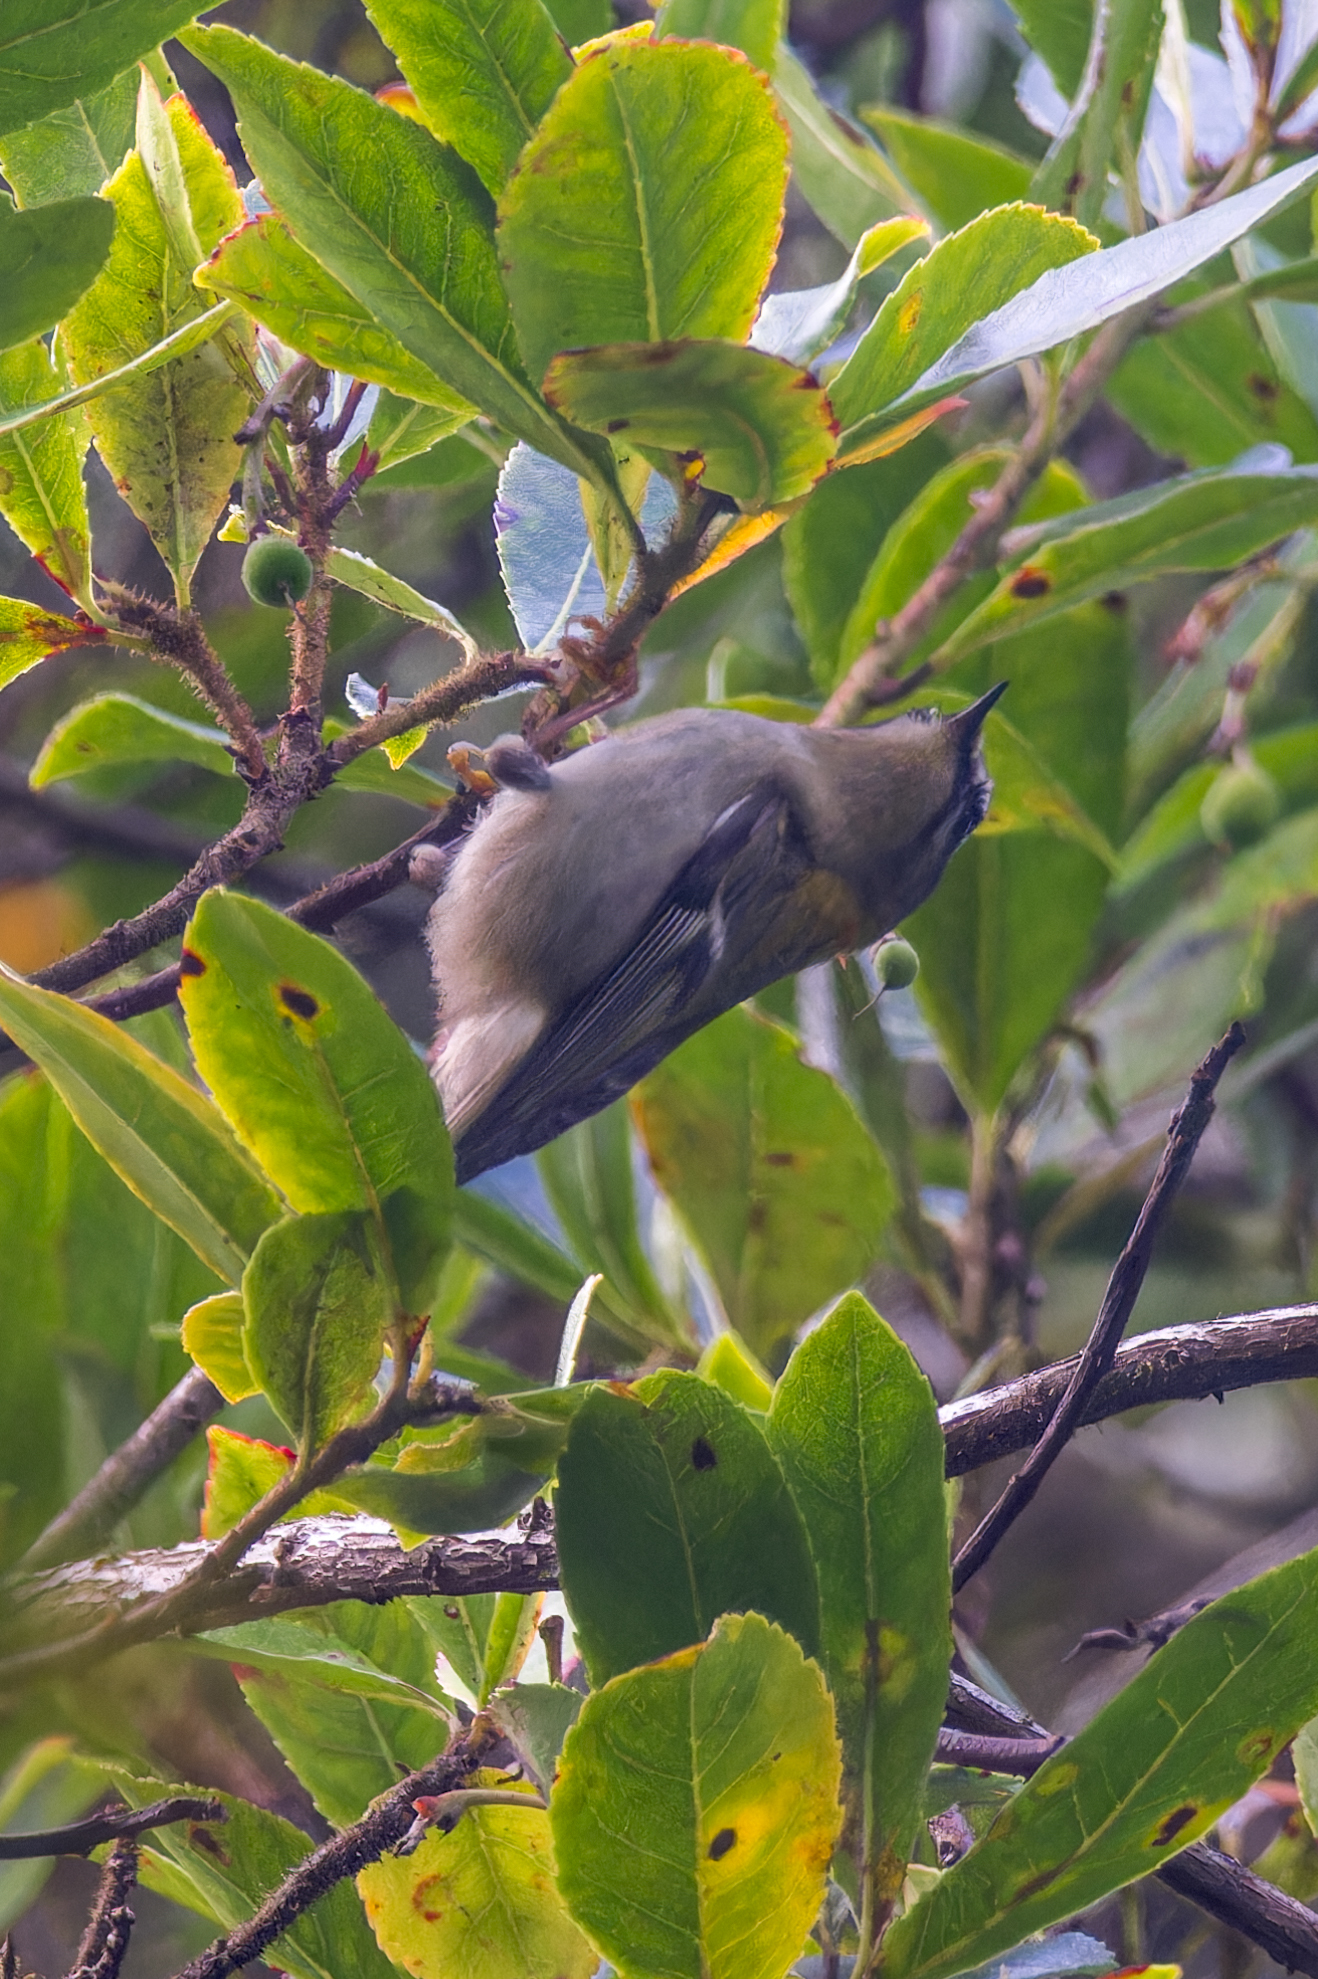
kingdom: Animalia
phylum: Chordata
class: Aves
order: Passeriformes
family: Regulidae
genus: Regulus
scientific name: Regulus ignicapilla
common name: Firecrest
